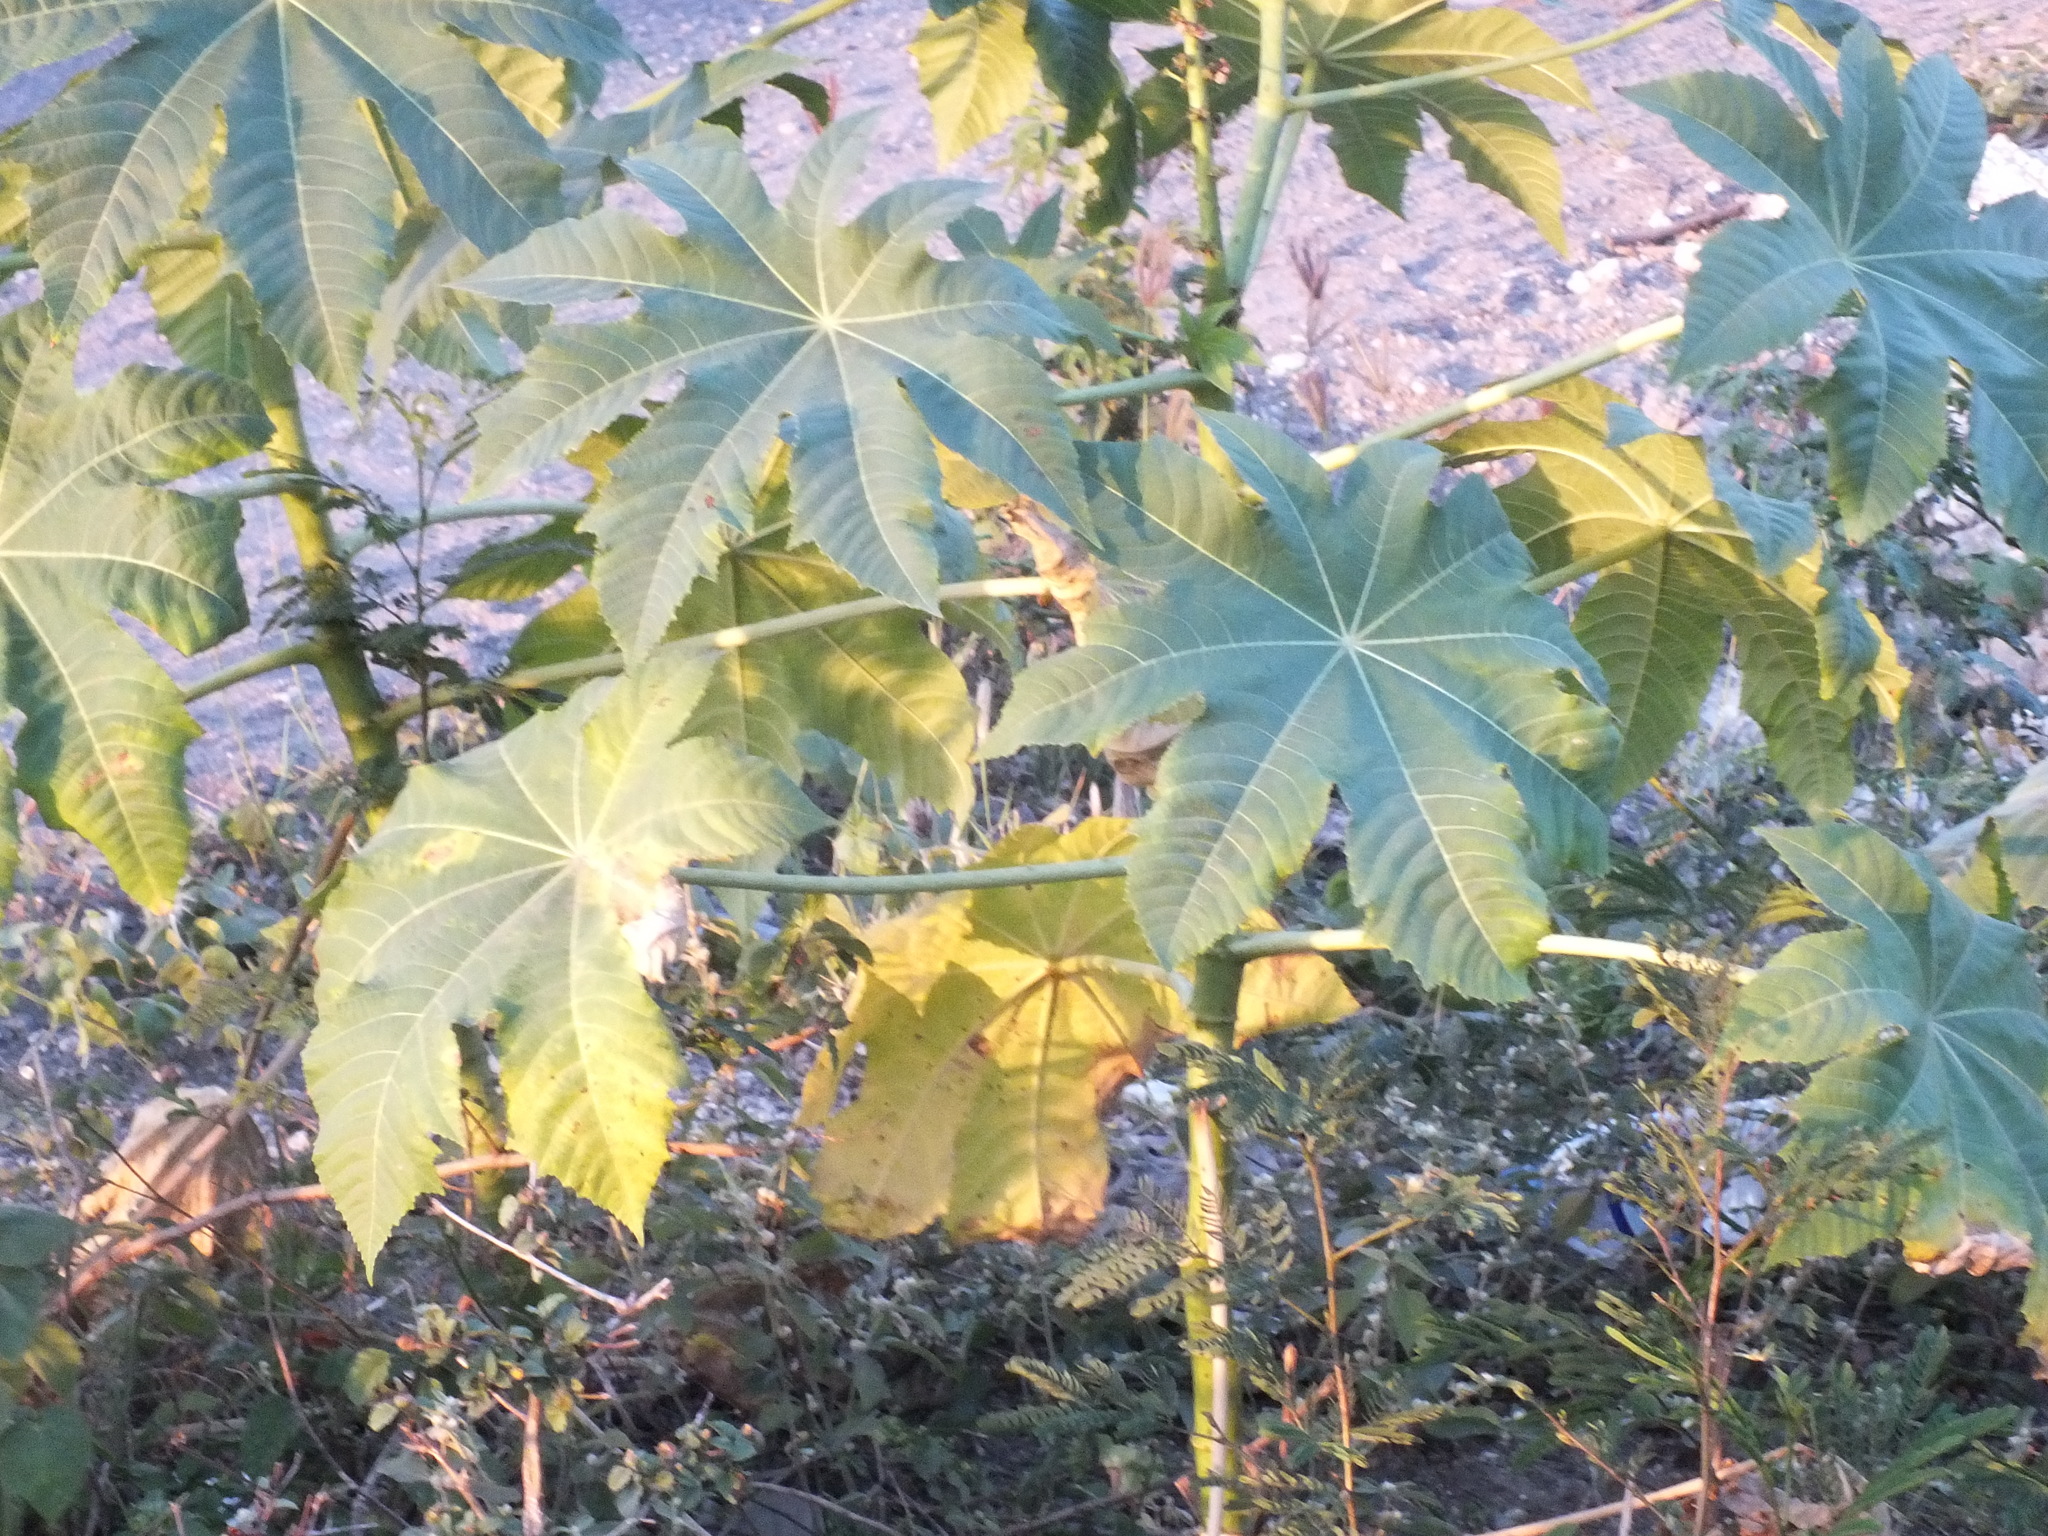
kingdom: Plantae
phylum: Tracheophyta
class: Magnoliopsida
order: Malpighiales
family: Euphorbiaceae
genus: Ricinus
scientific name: Ricinus communis
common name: Castor-oil-plant
